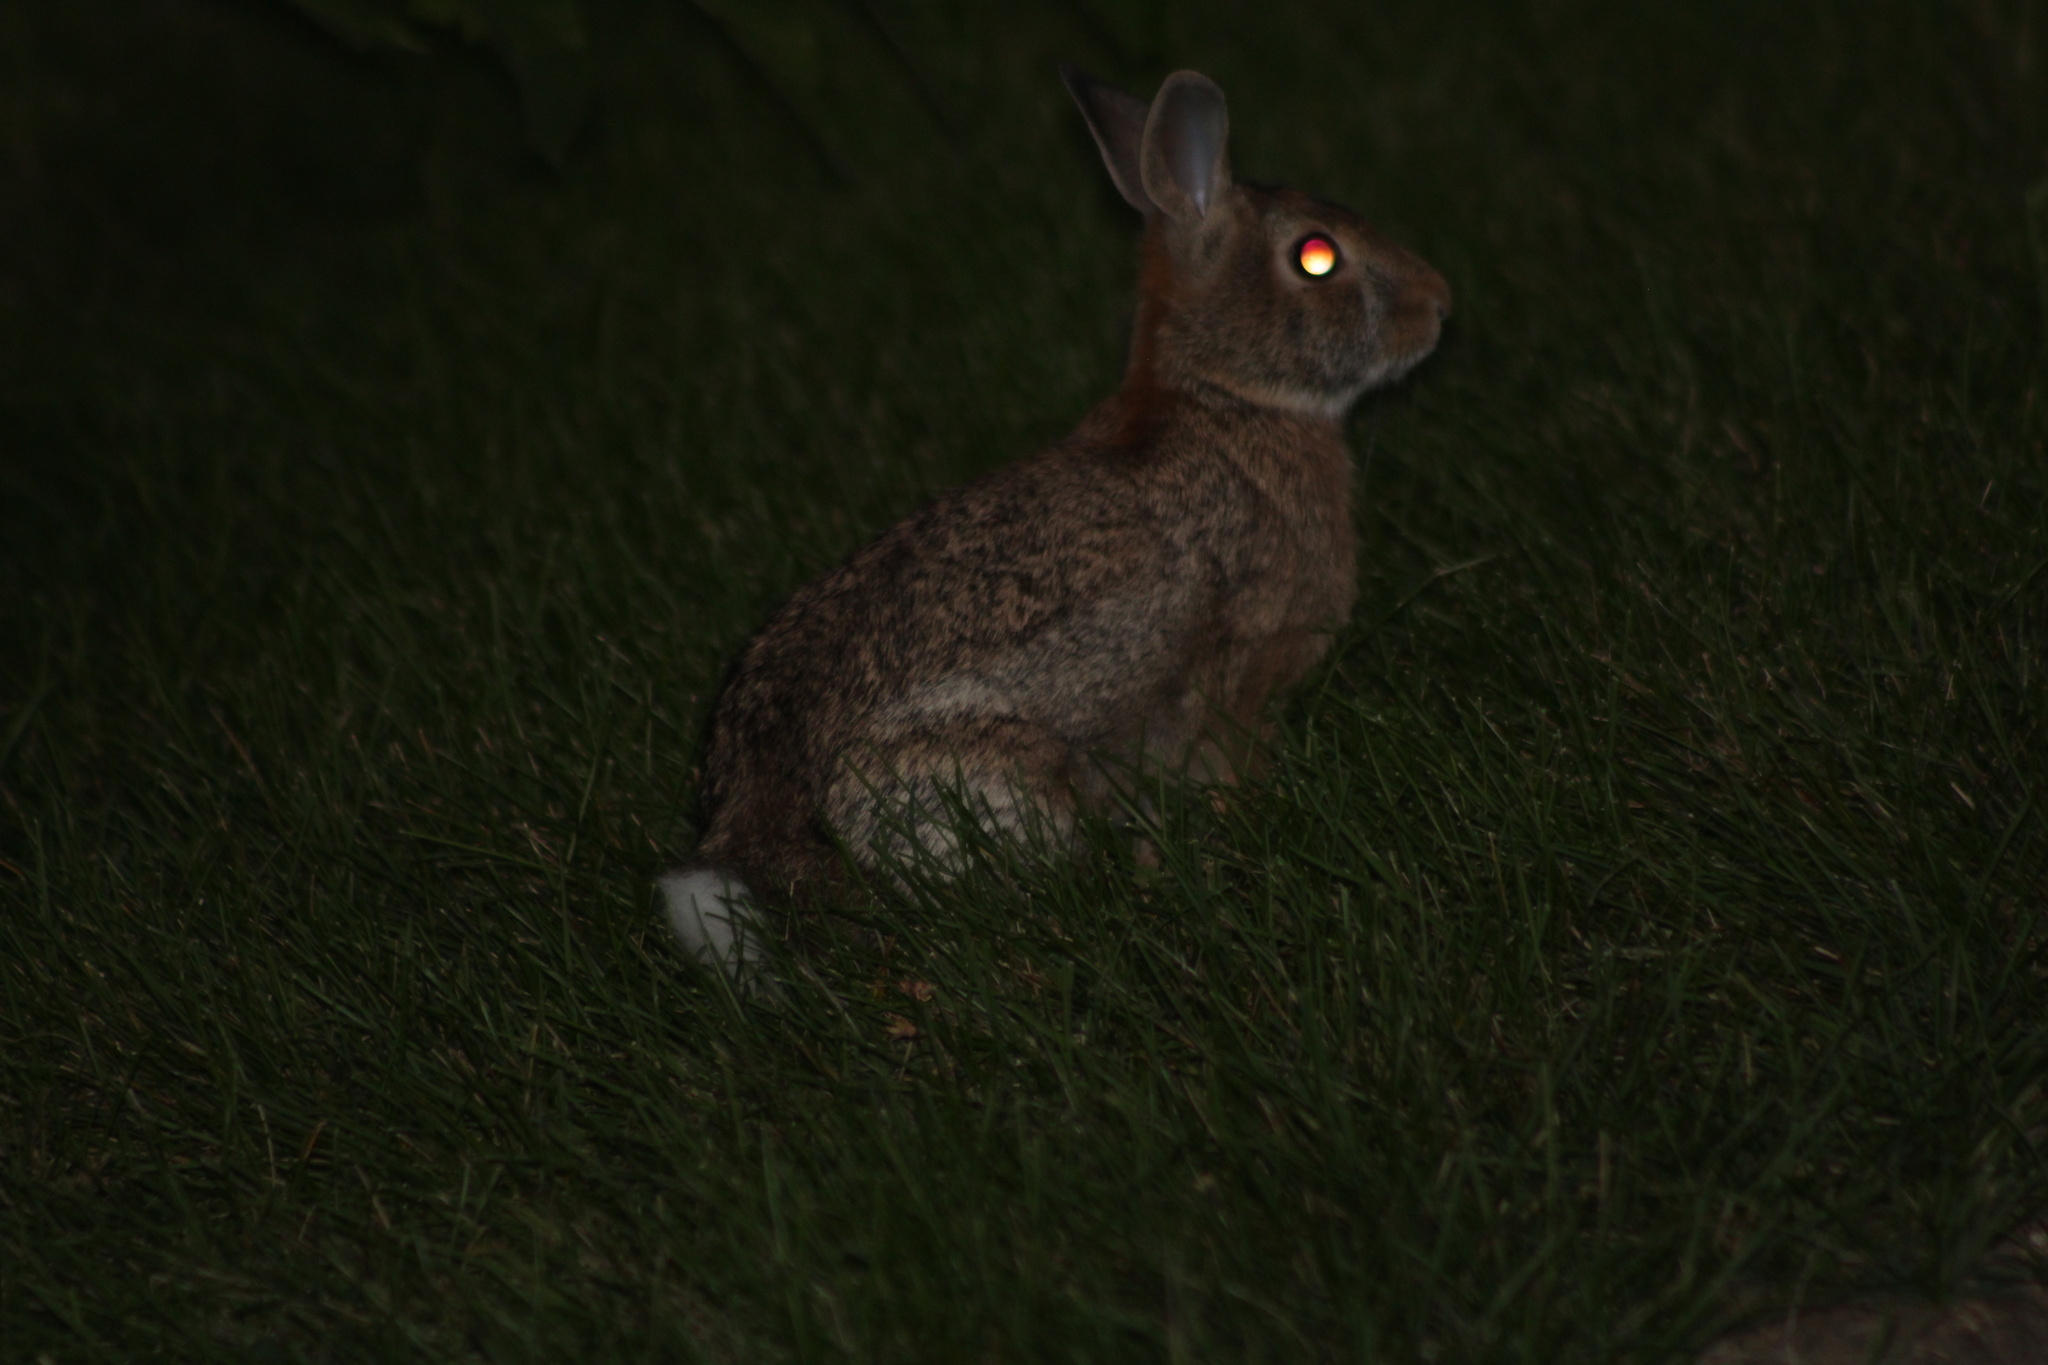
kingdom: Animalia
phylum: Chordata
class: Mammalia
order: Lagomorpha
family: Leporidae
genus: Sylvilagus
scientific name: Sylvilagus floridanus
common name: Eastern cottontail
